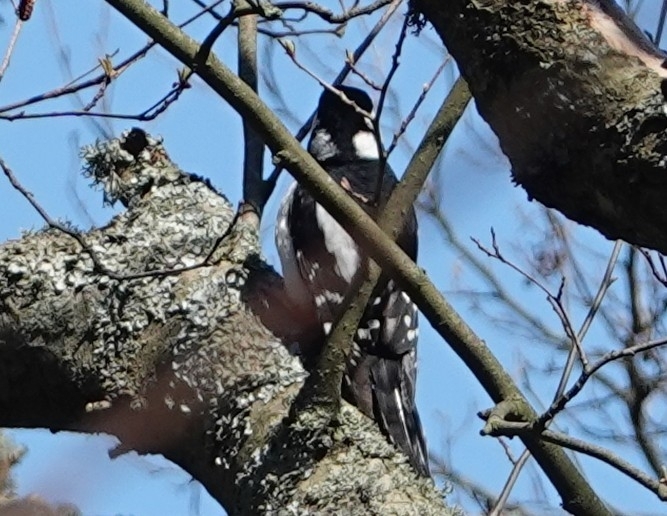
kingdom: Animalia
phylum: Chordata
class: Aves
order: Piciformes
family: Picidae
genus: Dendrocopos
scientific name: Dendrocopos major
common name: Great spotted woodpecker
